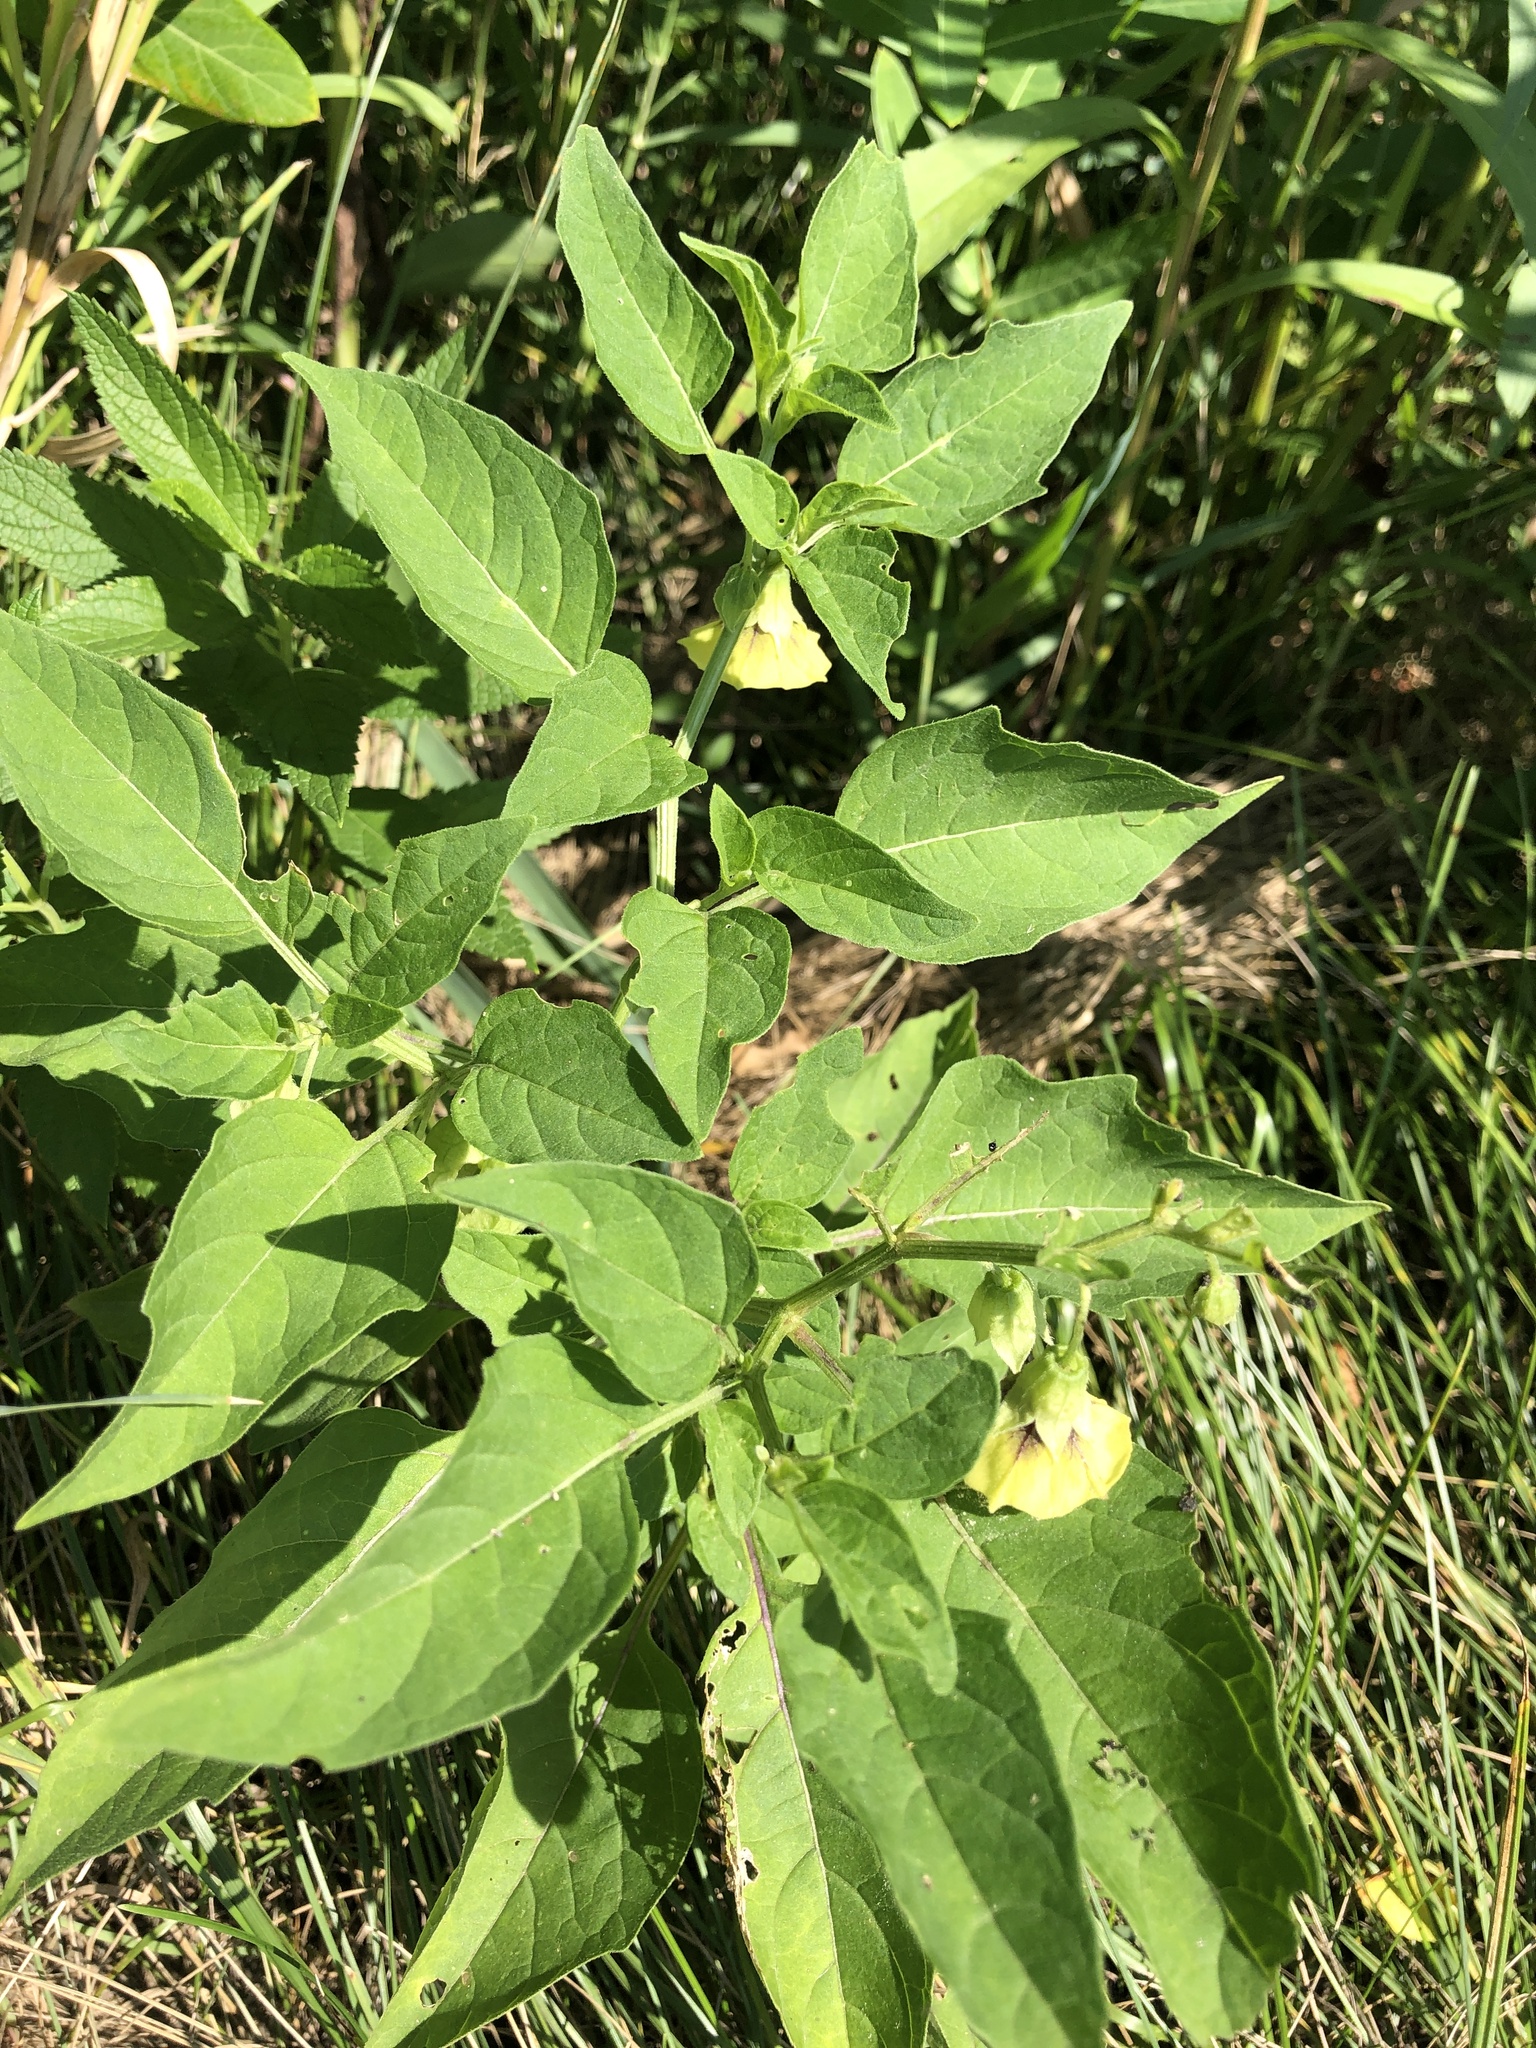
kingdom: Plantae
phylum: Tracheophyta
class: Magnoliopsida
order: Solanales
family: Solanaceae
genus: Physalis
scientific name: Physalis longifolia
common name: Common ground-cherry
